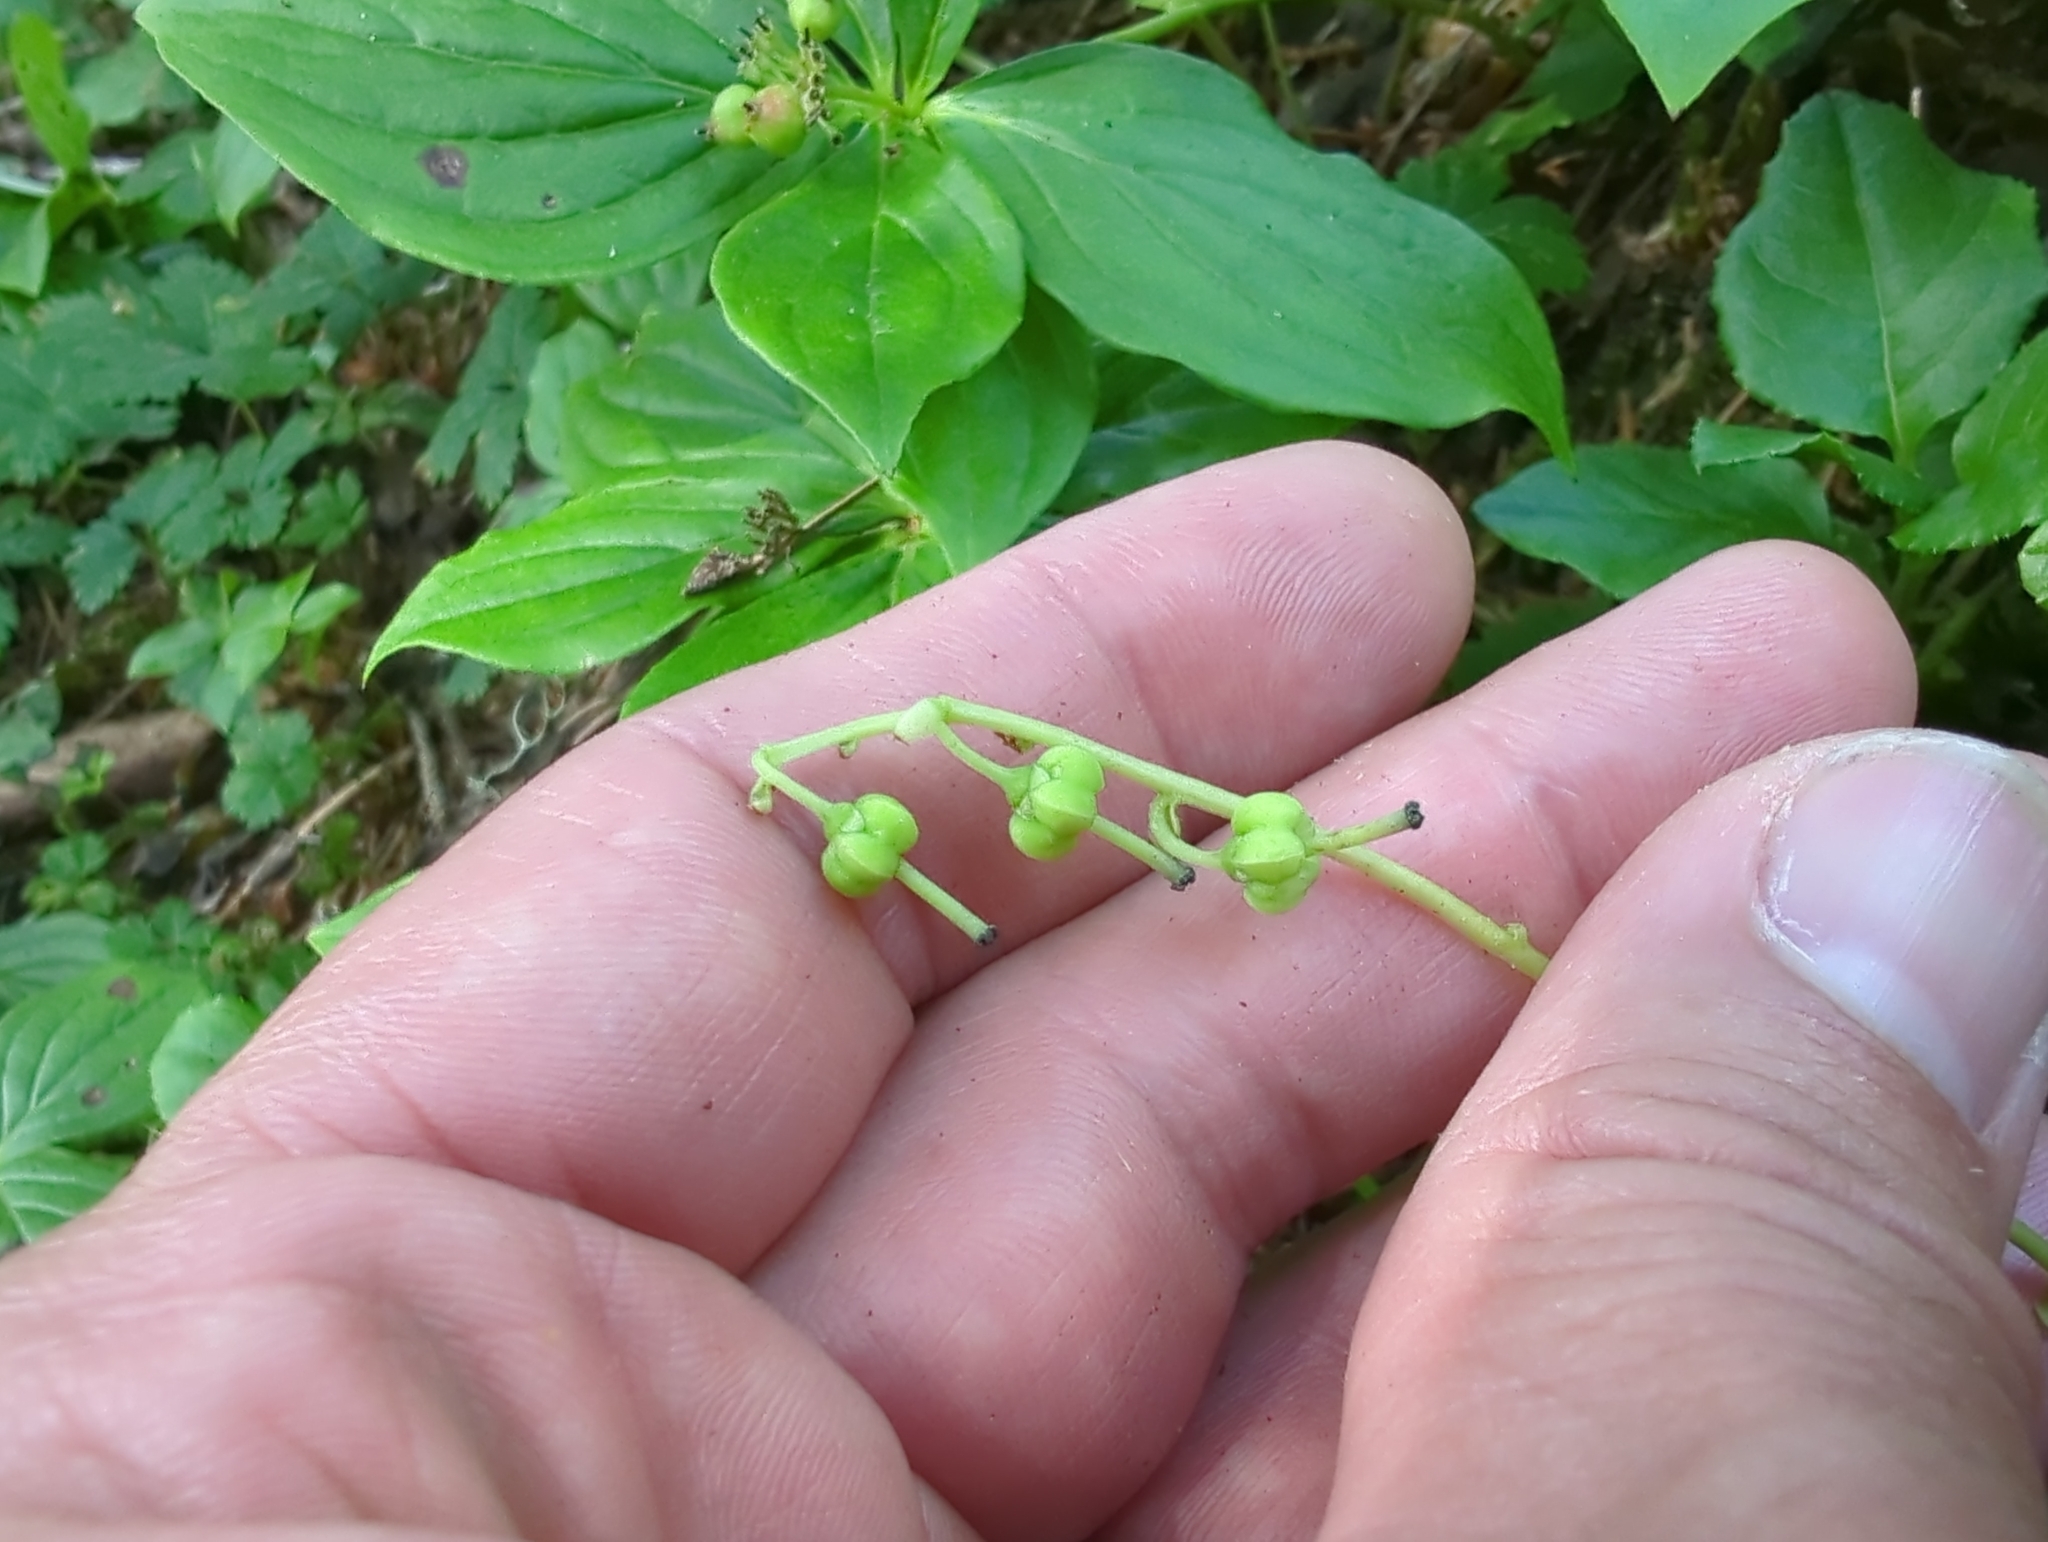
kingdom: Plantae
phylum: Tracheophyta
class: Magnoliopsida
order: Ericales
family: Ericaceae
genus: Orthilia
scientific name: Orthilia secunda
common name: One-sided orthilia
